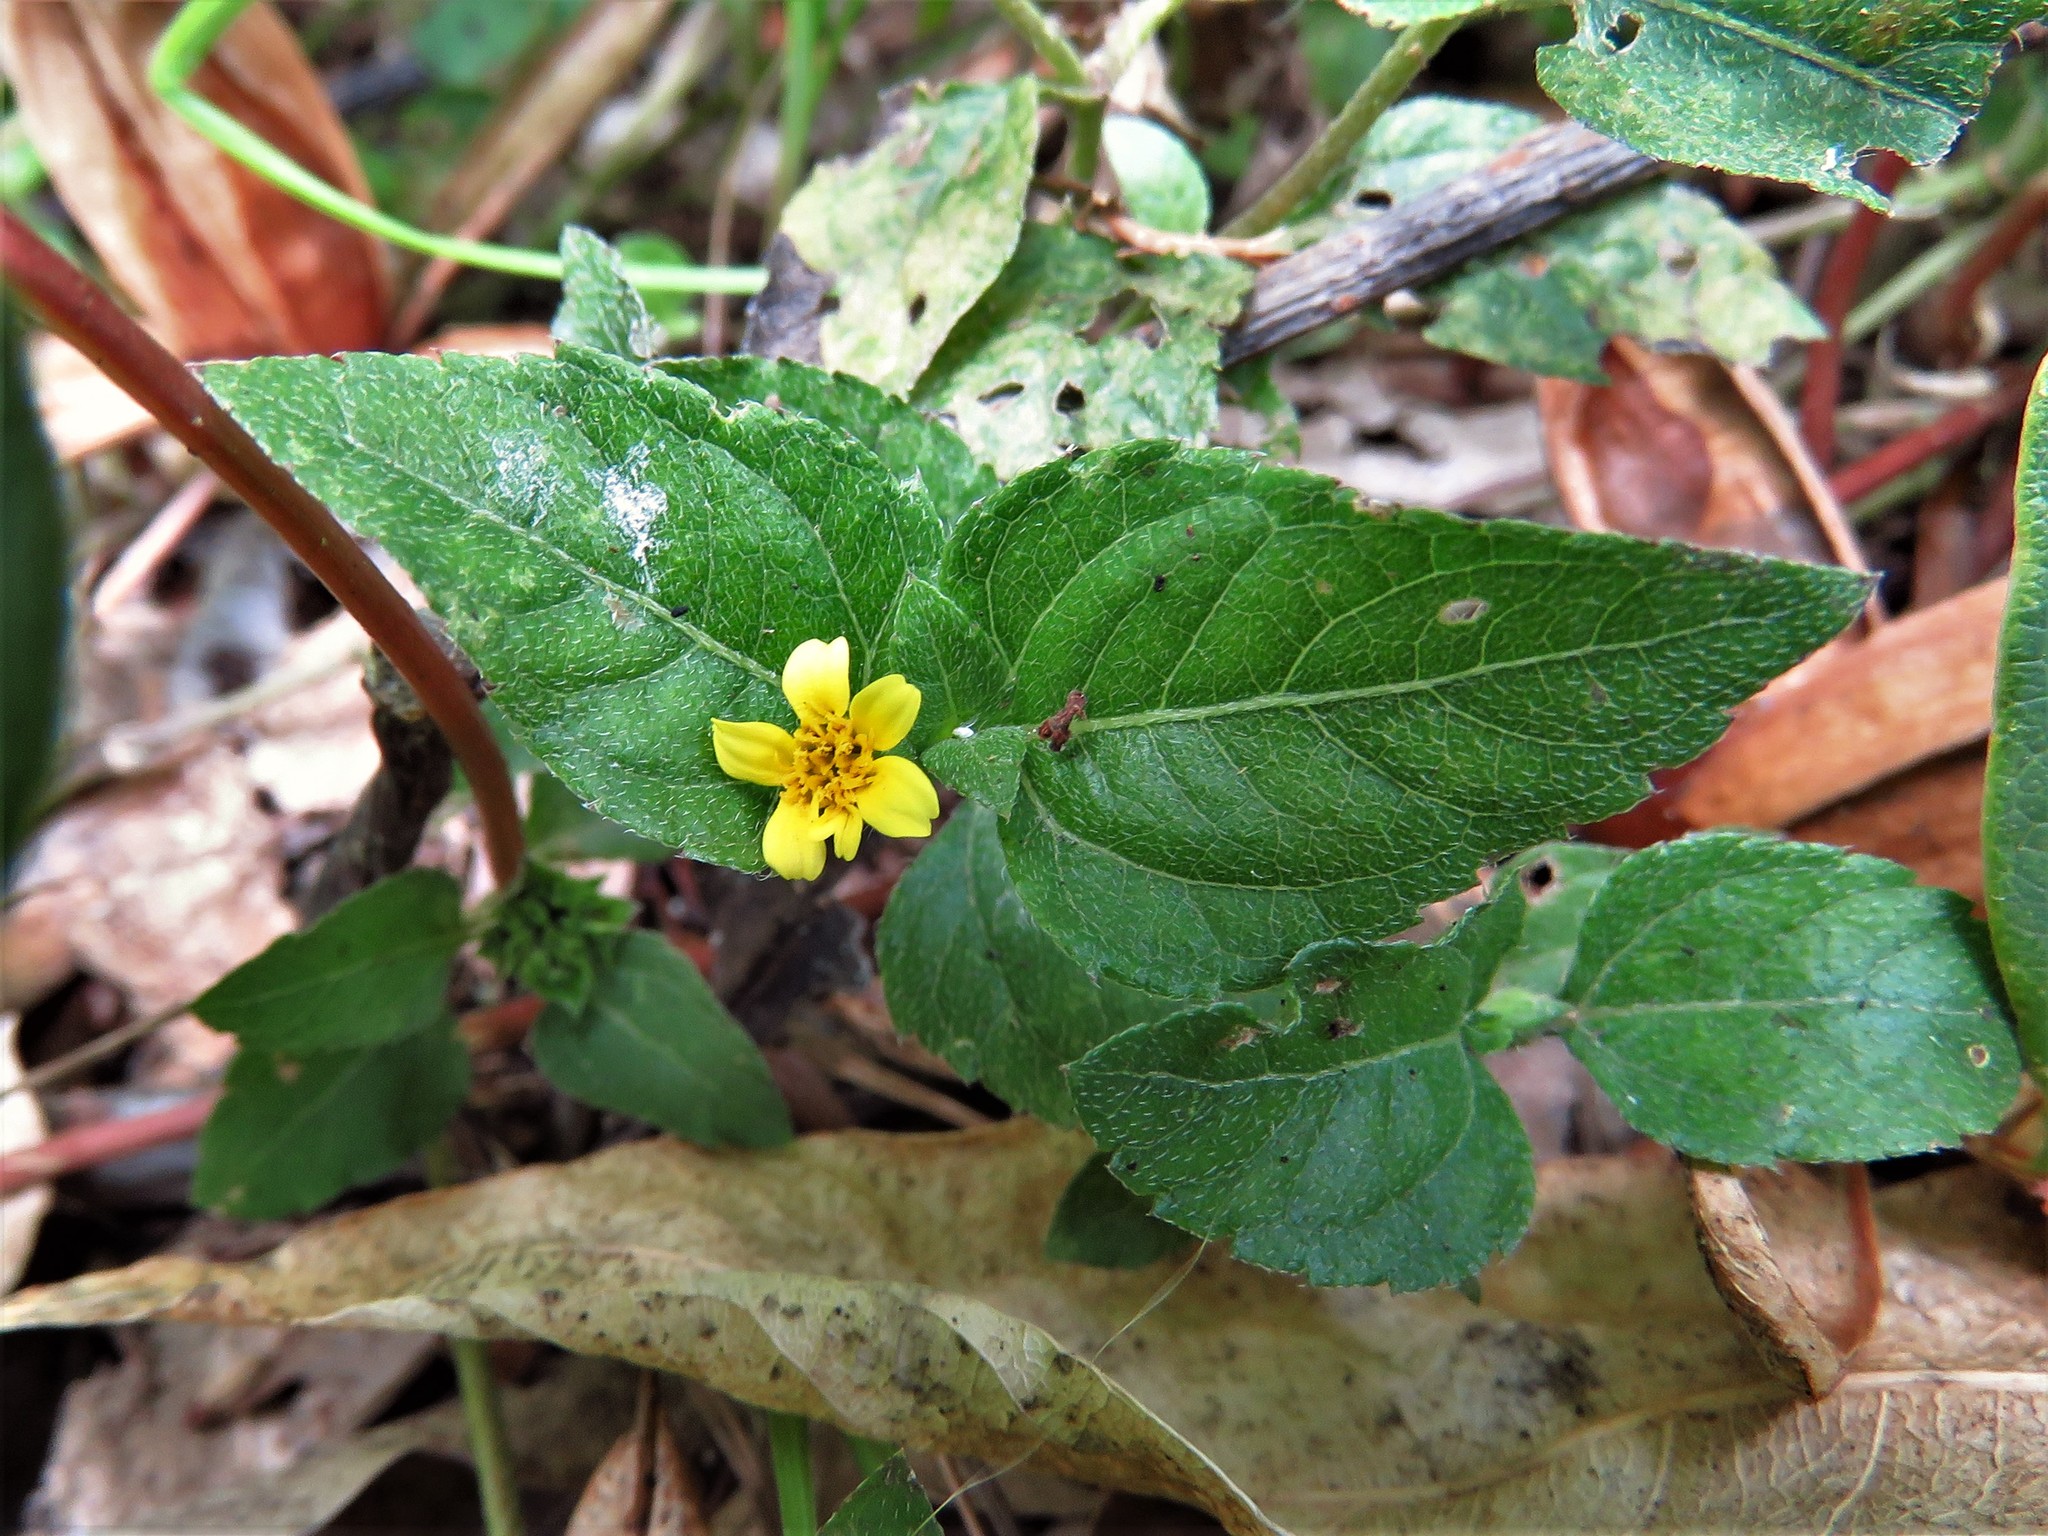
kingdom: Plantae
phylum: Tracheophyta
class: Magnoliopsida
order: Asterales
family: Asteraceae
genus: Calyptocarpus
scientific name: Calyptocarpus vialis
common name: Straggler daisy
